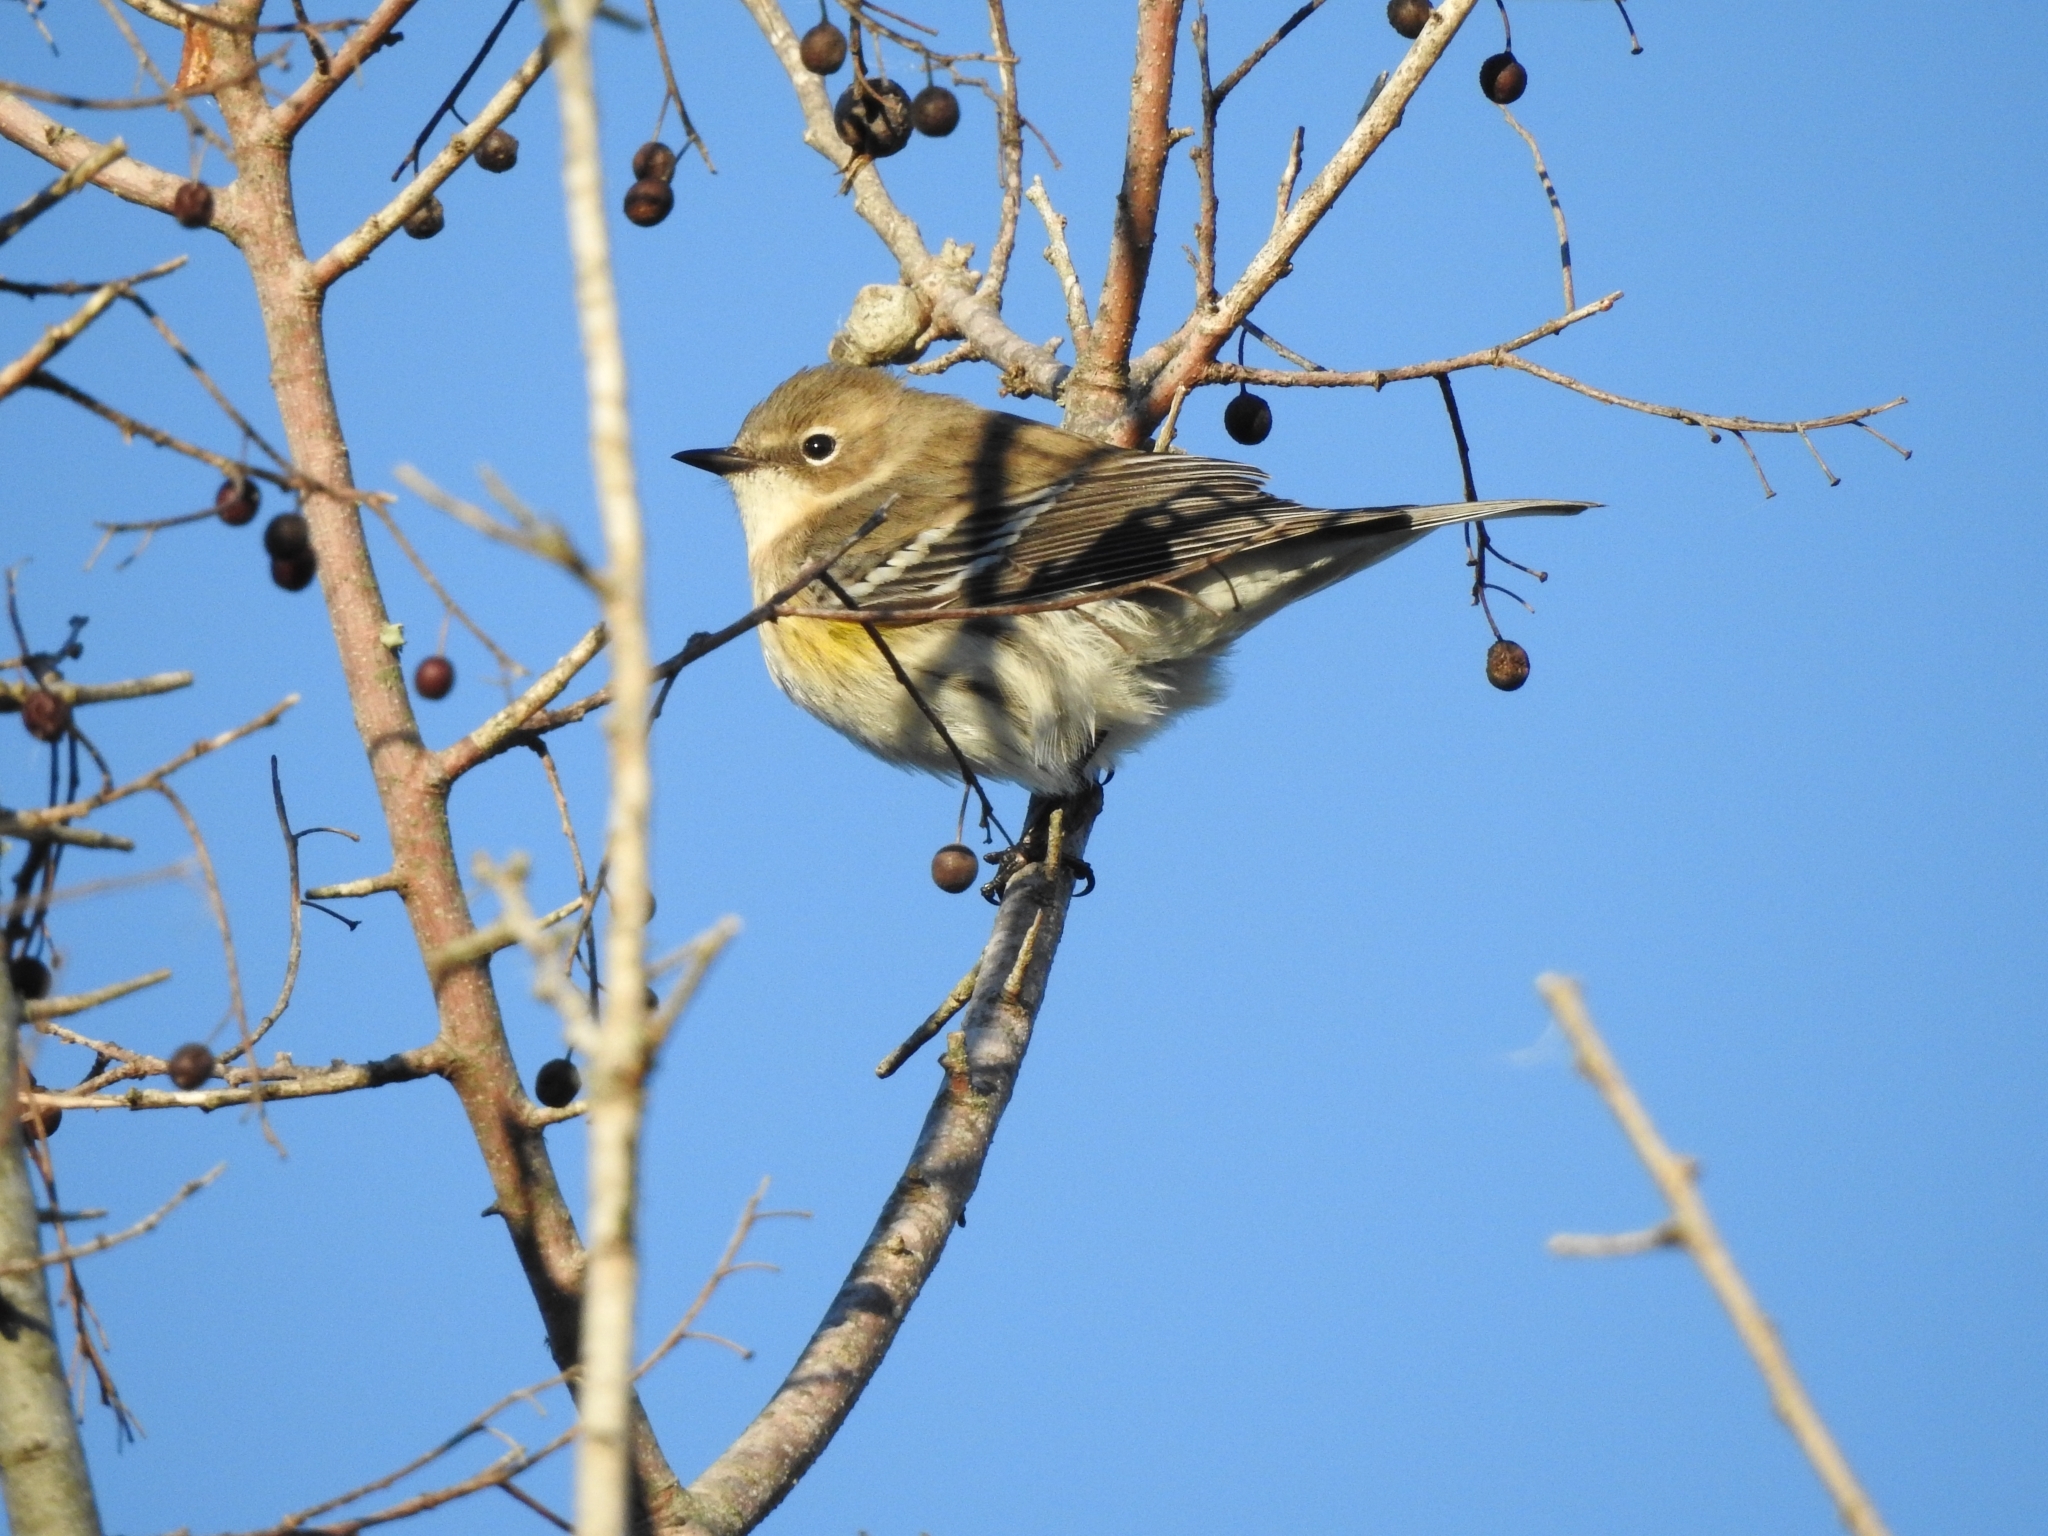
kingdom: Animalia
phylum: Chordata
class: Aves
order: Passeriformes
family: Parulidae
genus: Setophaga
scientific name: Setophaga coronata
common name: Myrtle warbler
